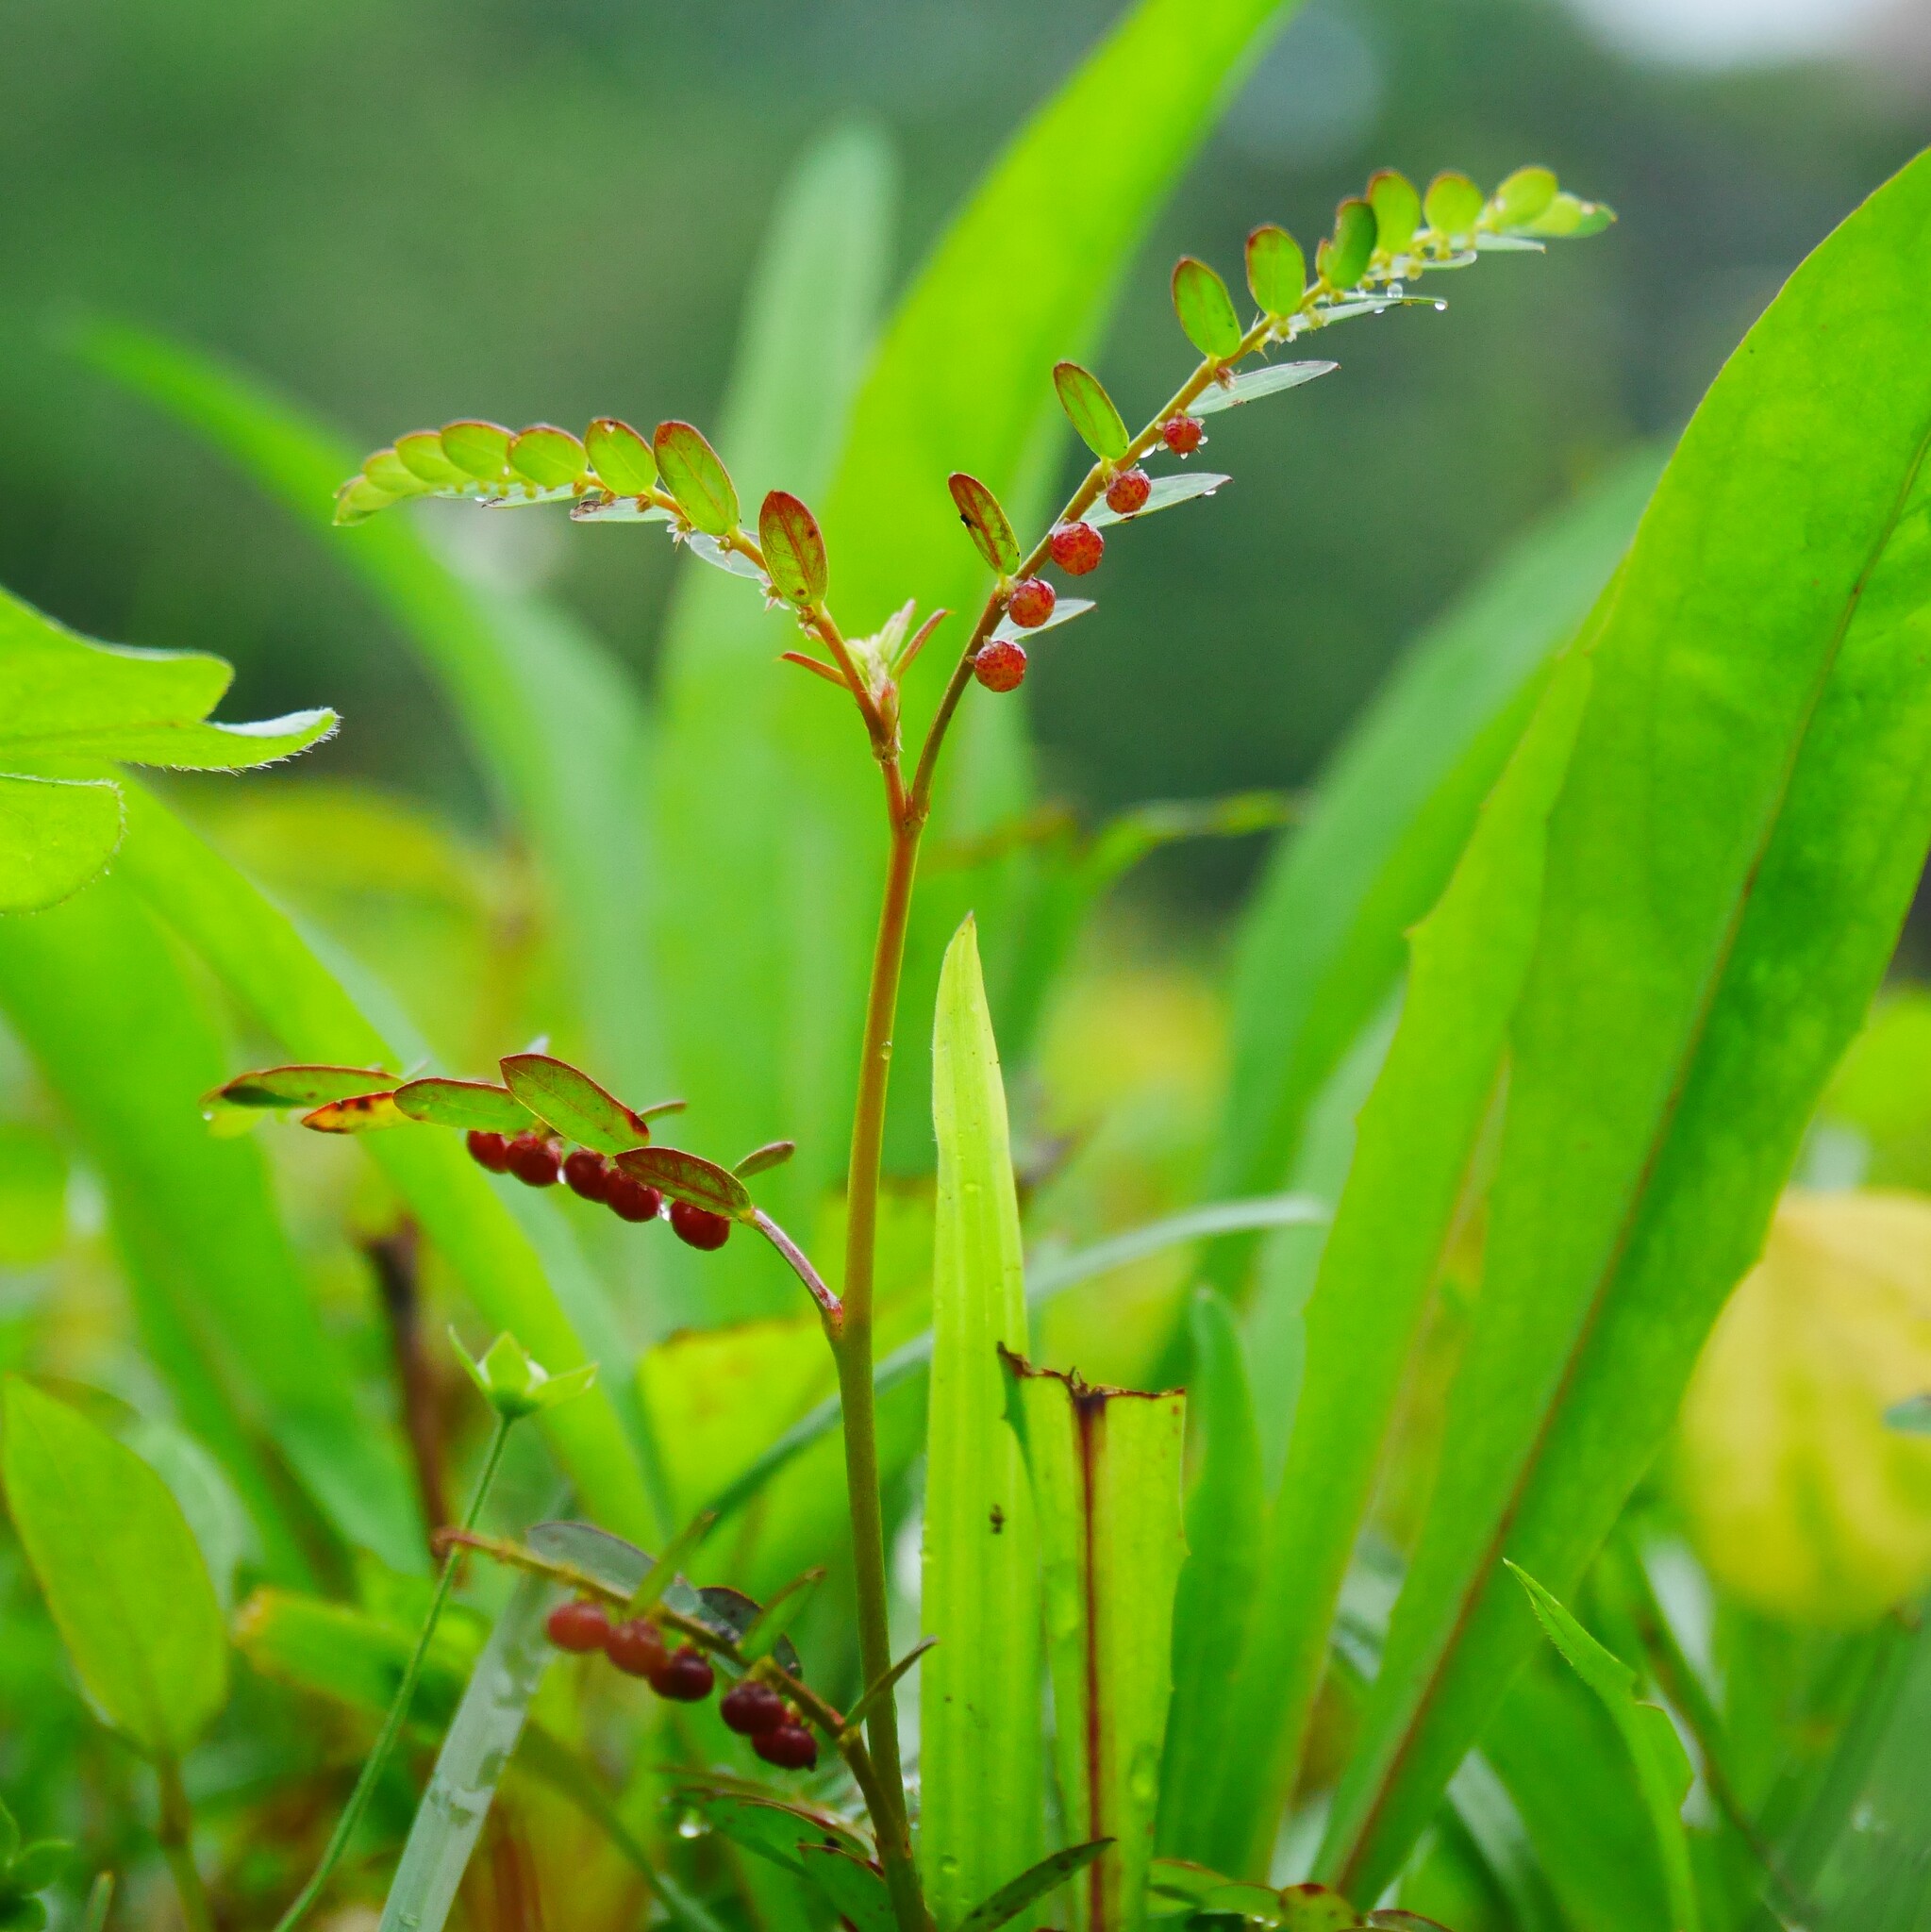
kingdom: Plantae
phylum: Tracheophyta
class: Magnoliopsida
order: Malpighiales
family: Phyllanthaceae
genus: Phyllanthus
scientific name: Phyllanthus urinaria
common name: Chamber bitter
